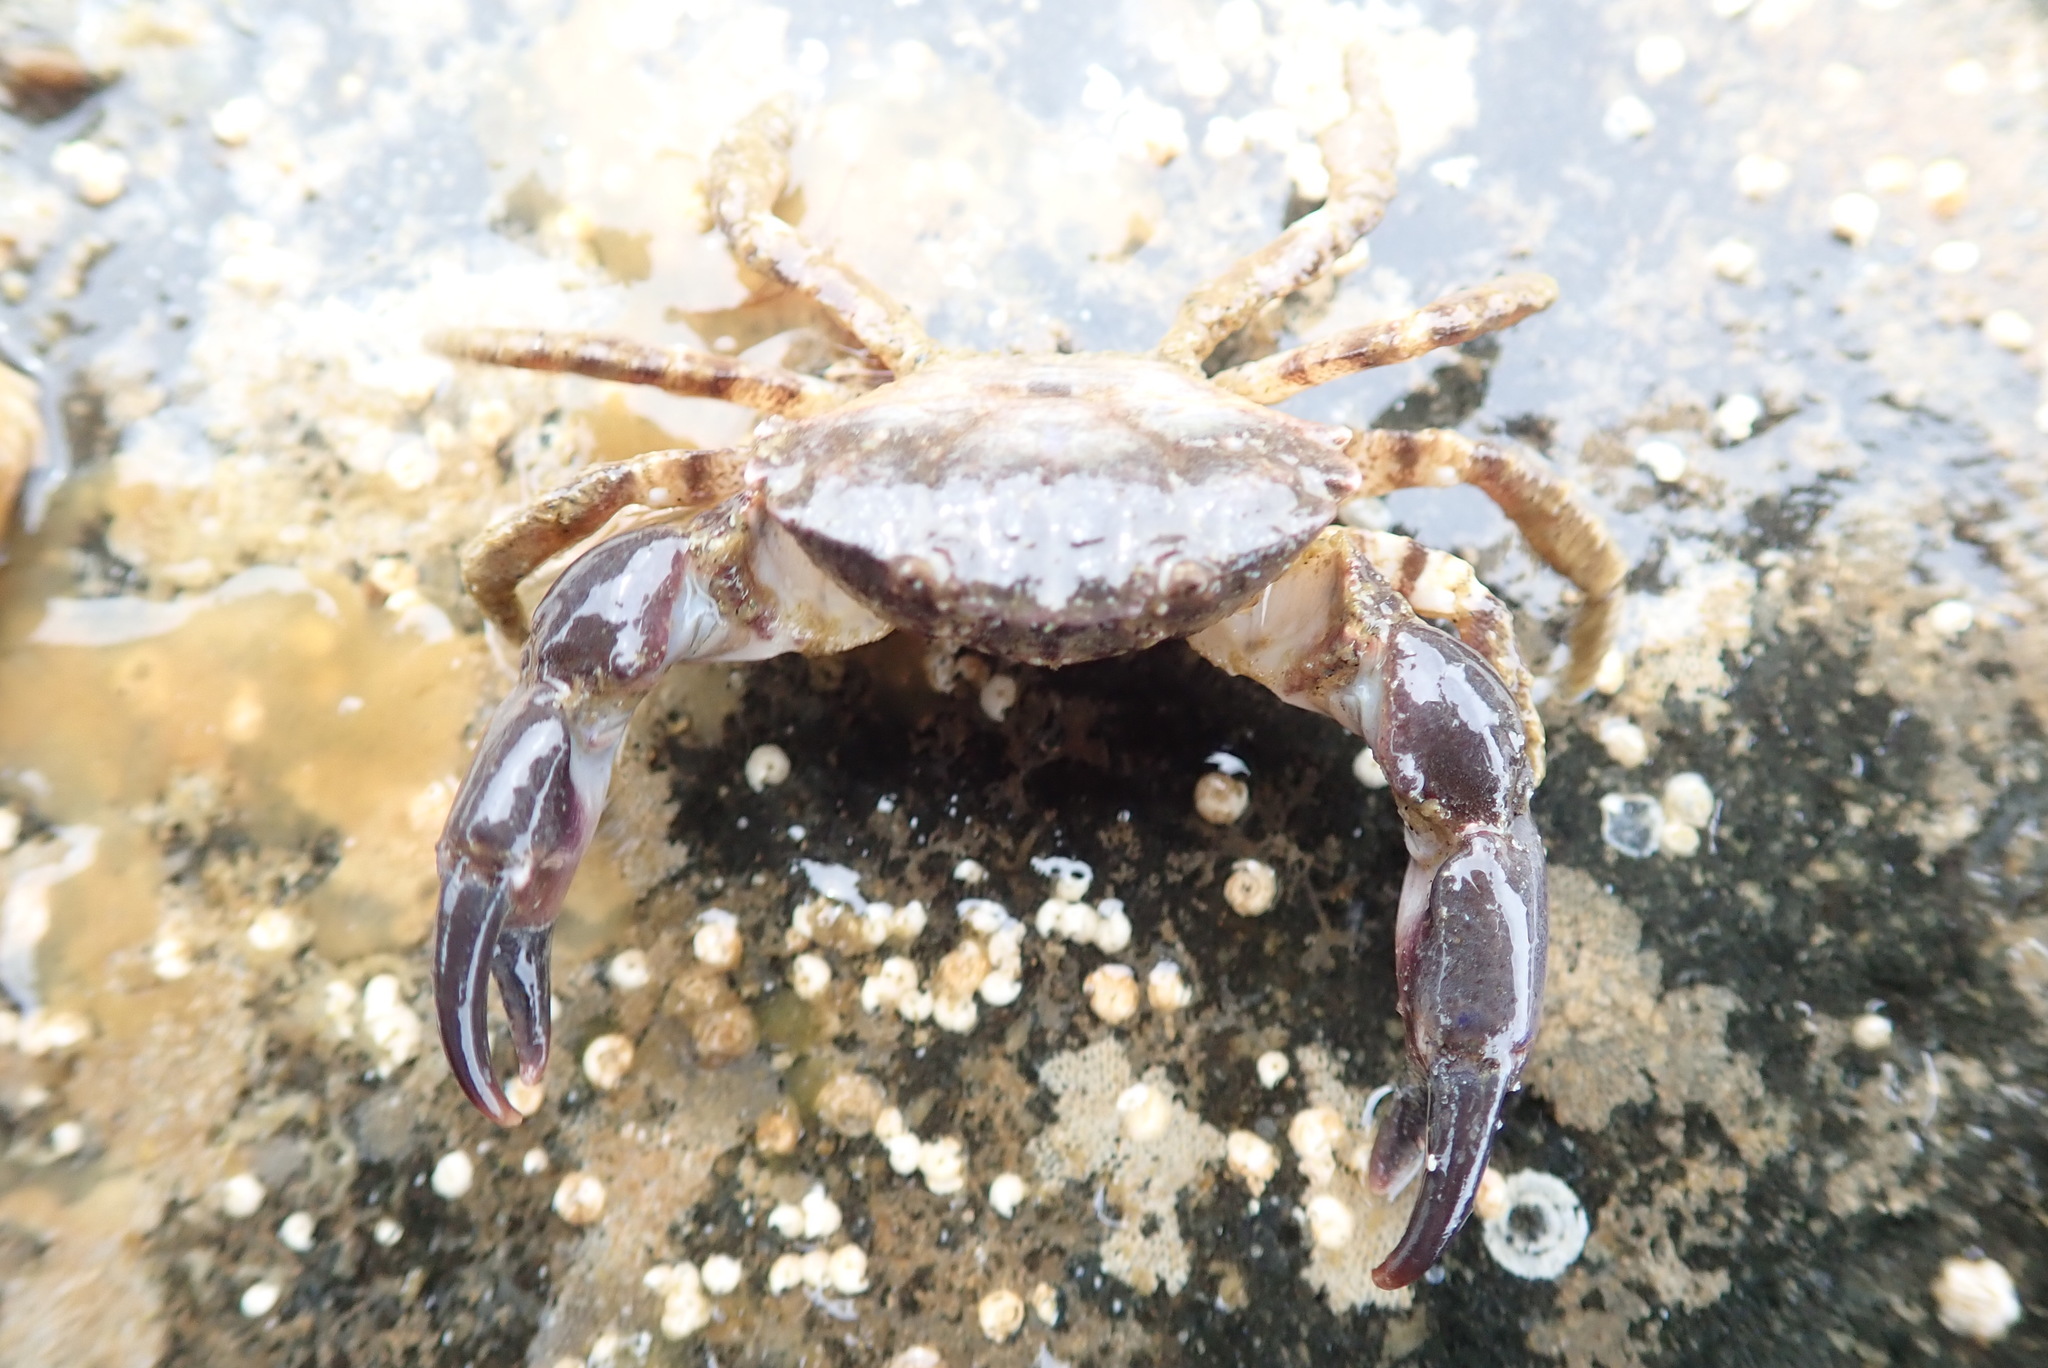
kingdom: Animalia
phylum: Arthropoda
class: Malacostraca
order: Decapoda
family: Panopeidae
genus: Lophopanopeus
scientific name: Lophopanopeus bellus
